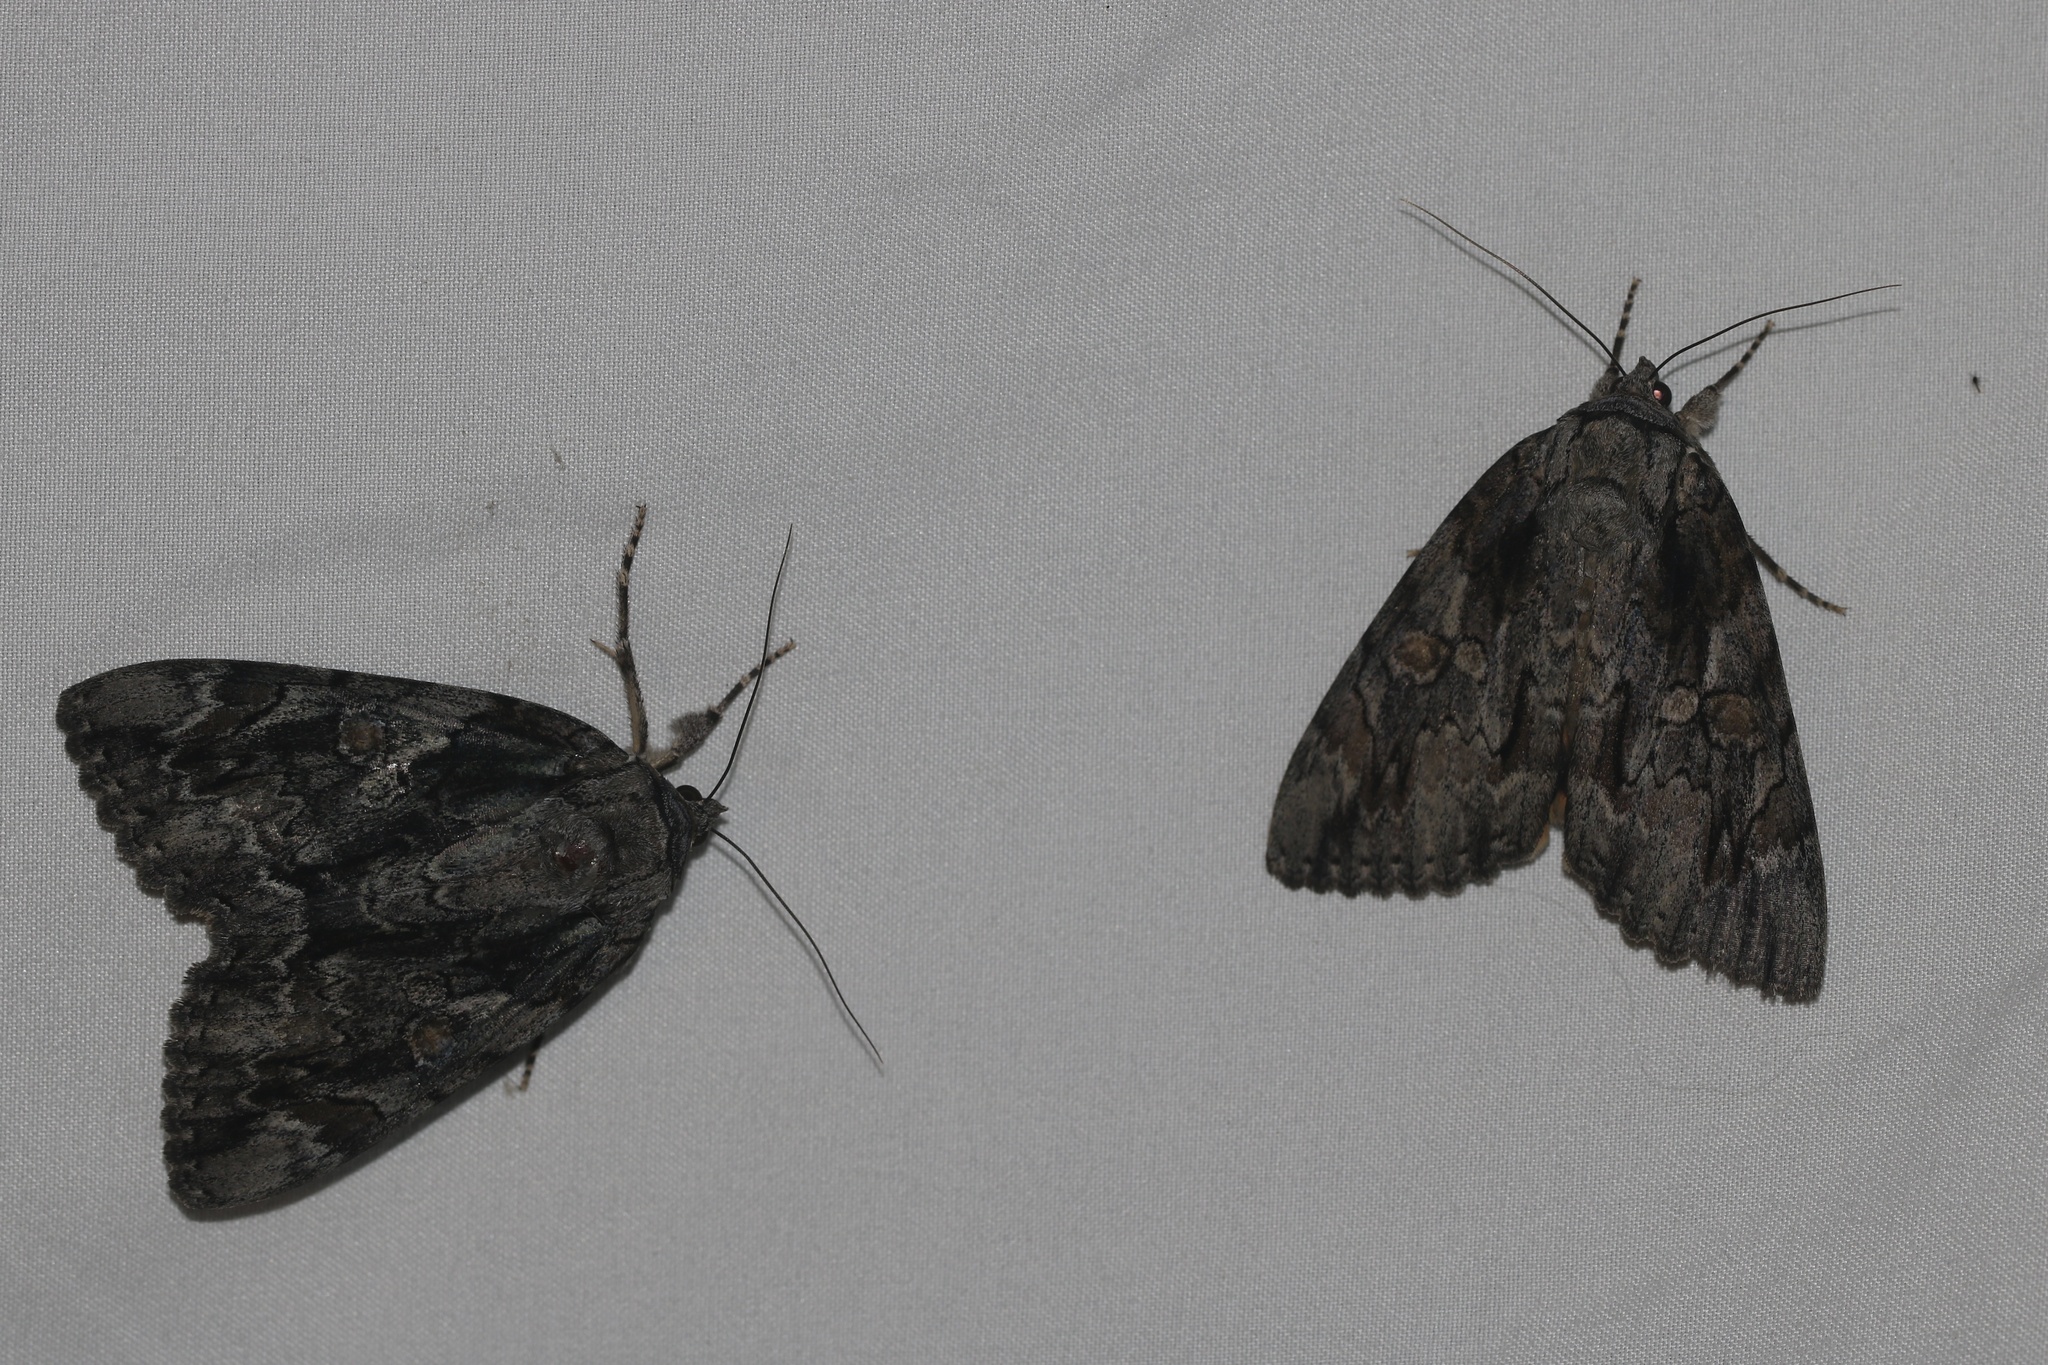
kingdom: Animalia
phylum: Arthropoda
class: Insecta
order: Lepidoptera
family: Erebidae
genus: Catocala
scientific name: Catocala neogama
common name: Bride underwing
